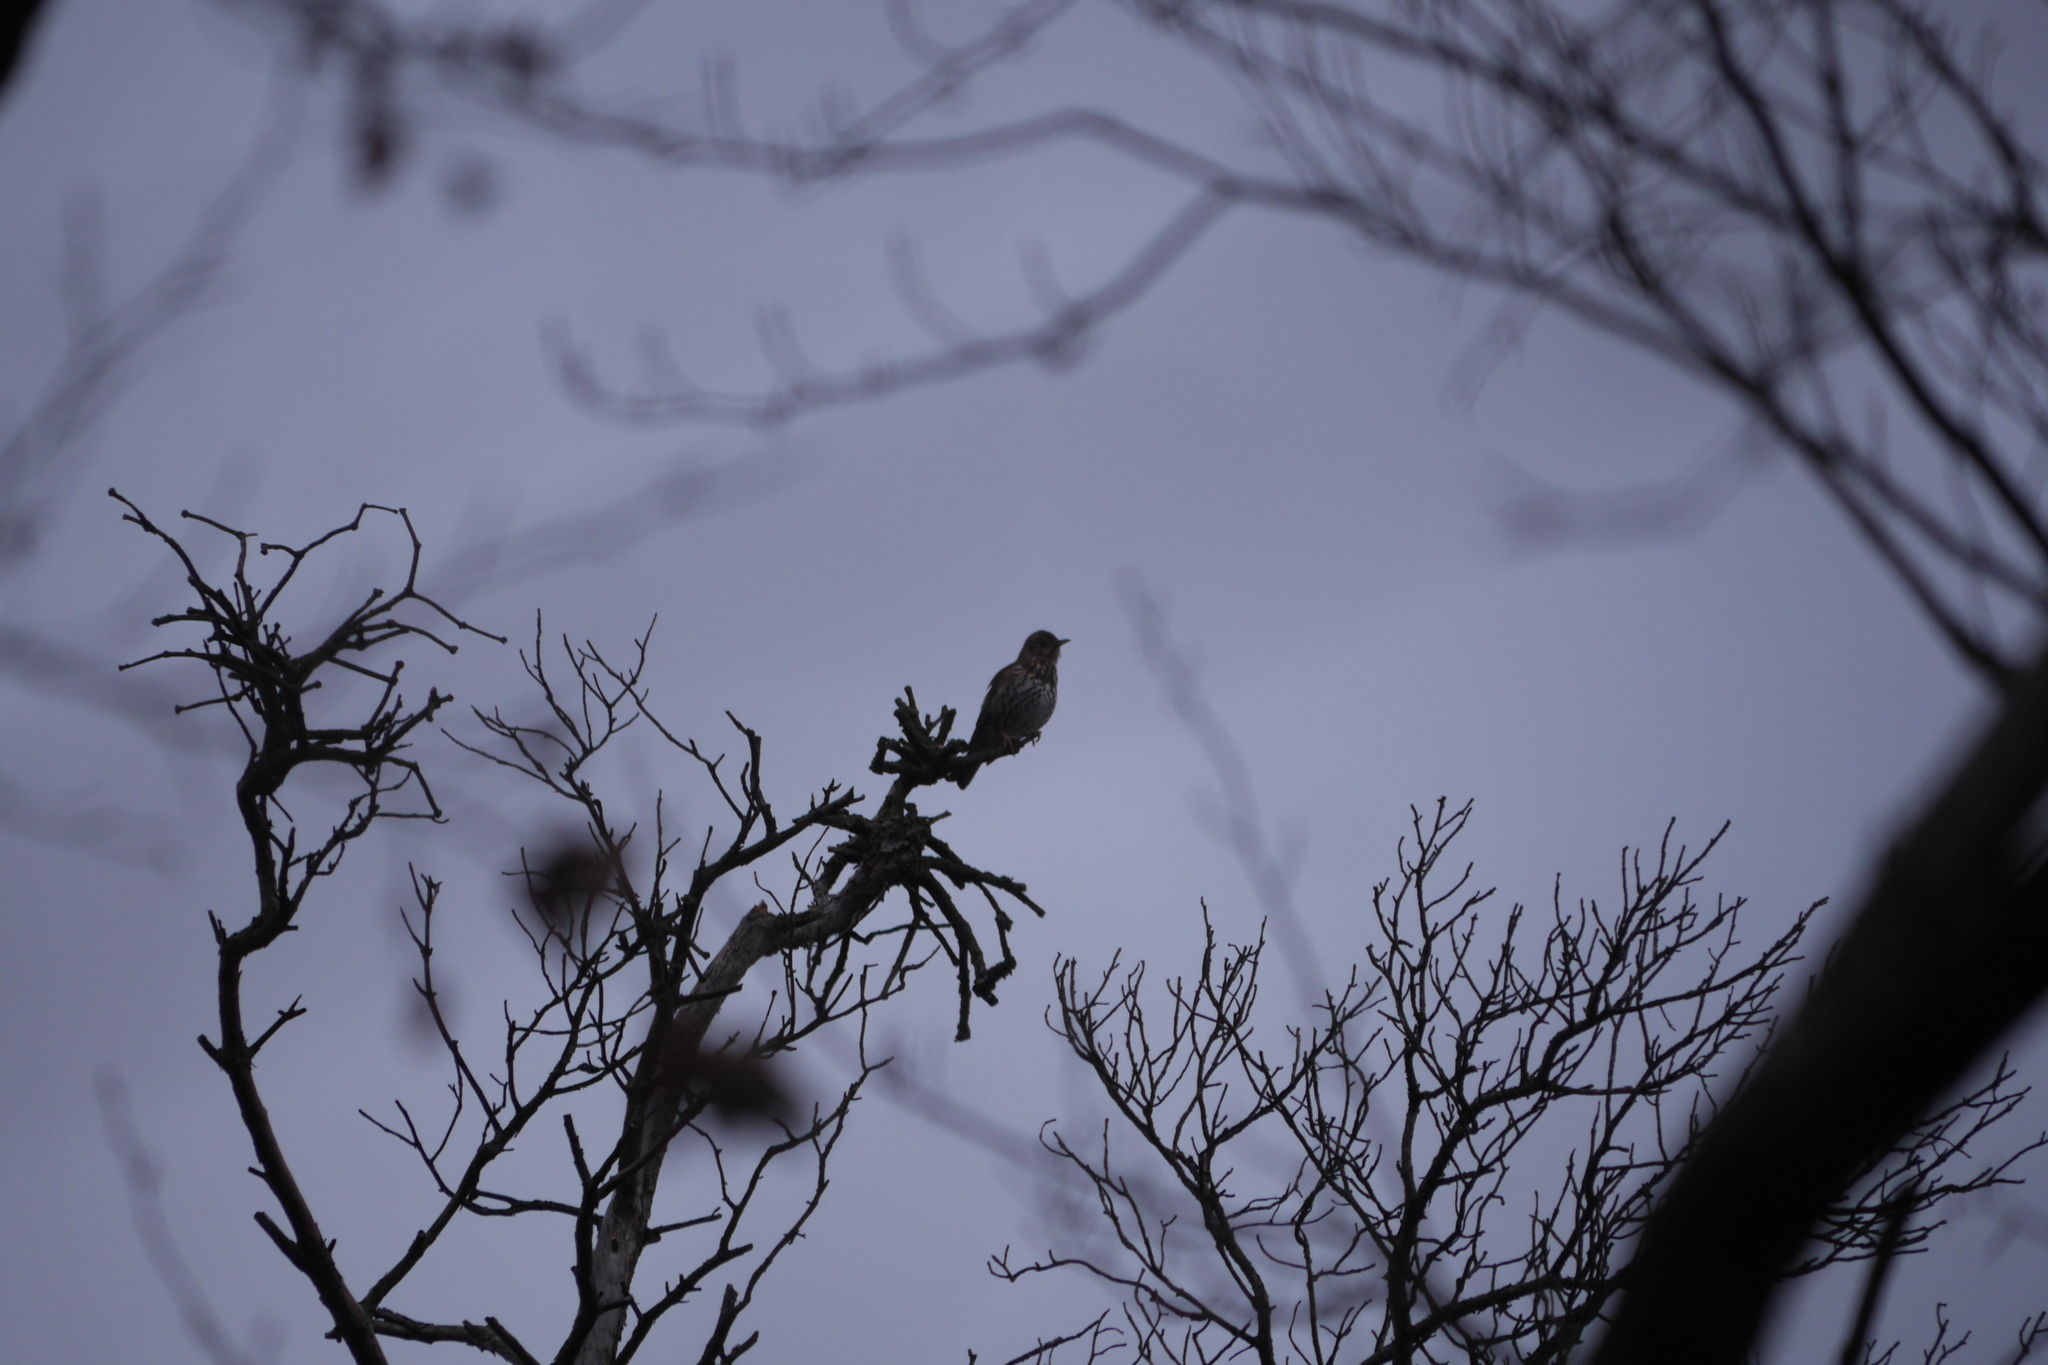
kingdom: Animalia
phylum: Chordata
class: Aves
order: Passeriformes
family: Turdidae
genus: Turdus
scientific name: Turdus philomelos
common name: Song thrush
